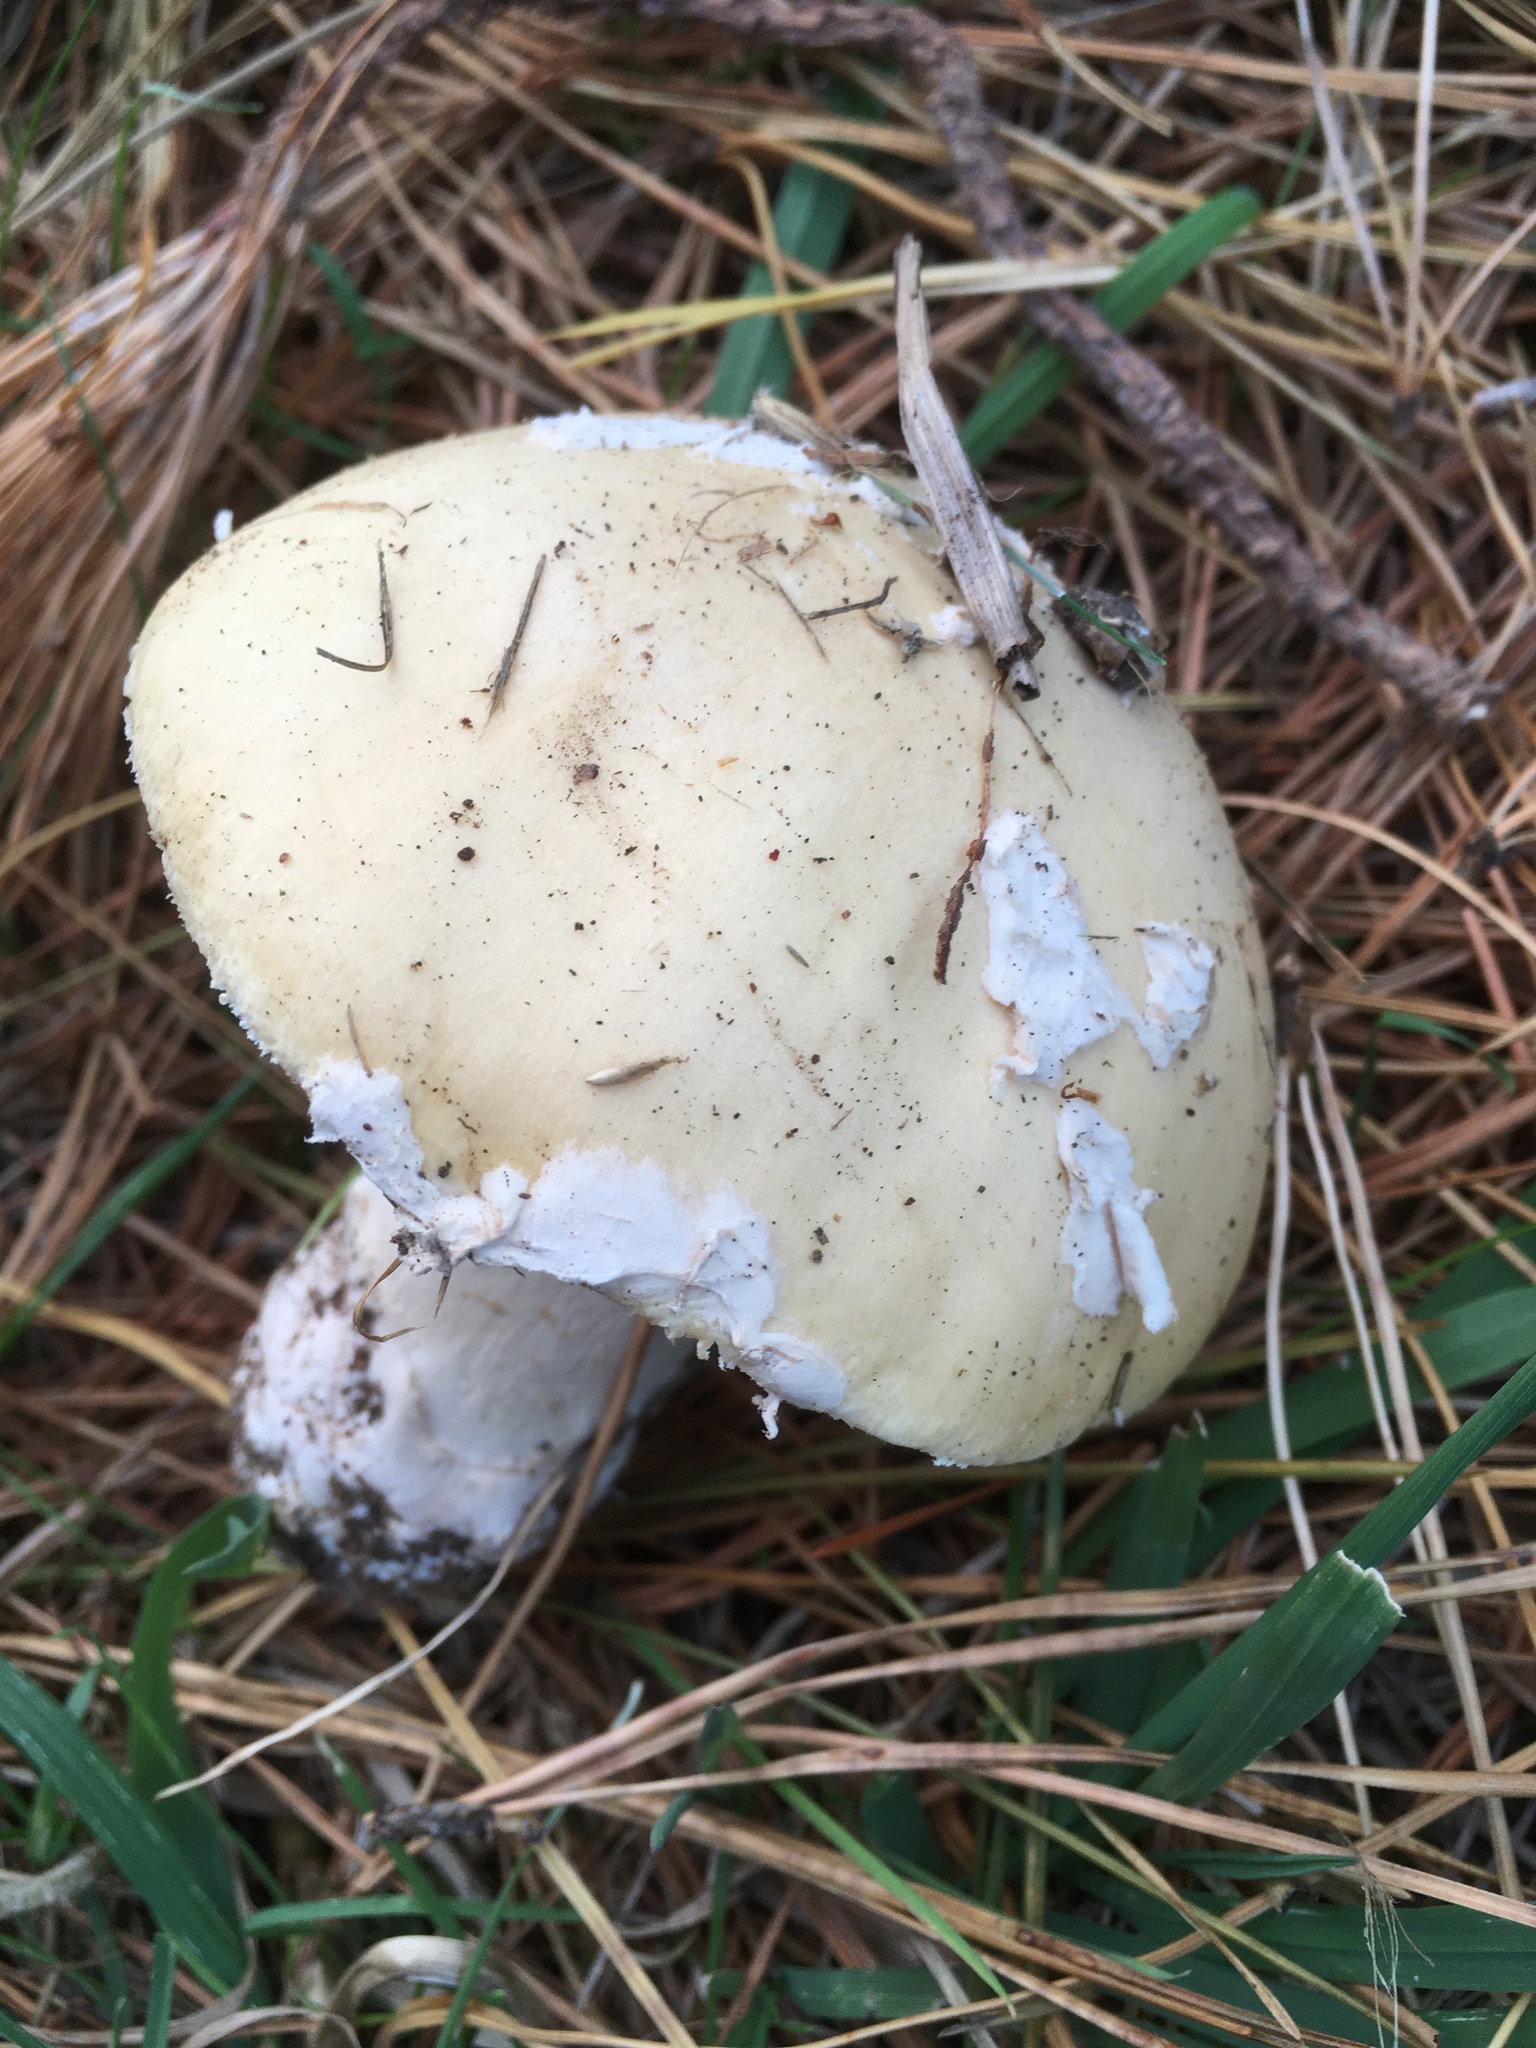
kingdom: Fungi
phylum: Basidiomycota
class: Agaricomycetes
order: Agaricales
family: Amanitaceae
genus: Amanita
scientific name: Amanita gemmata
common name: Jewelled amanita
